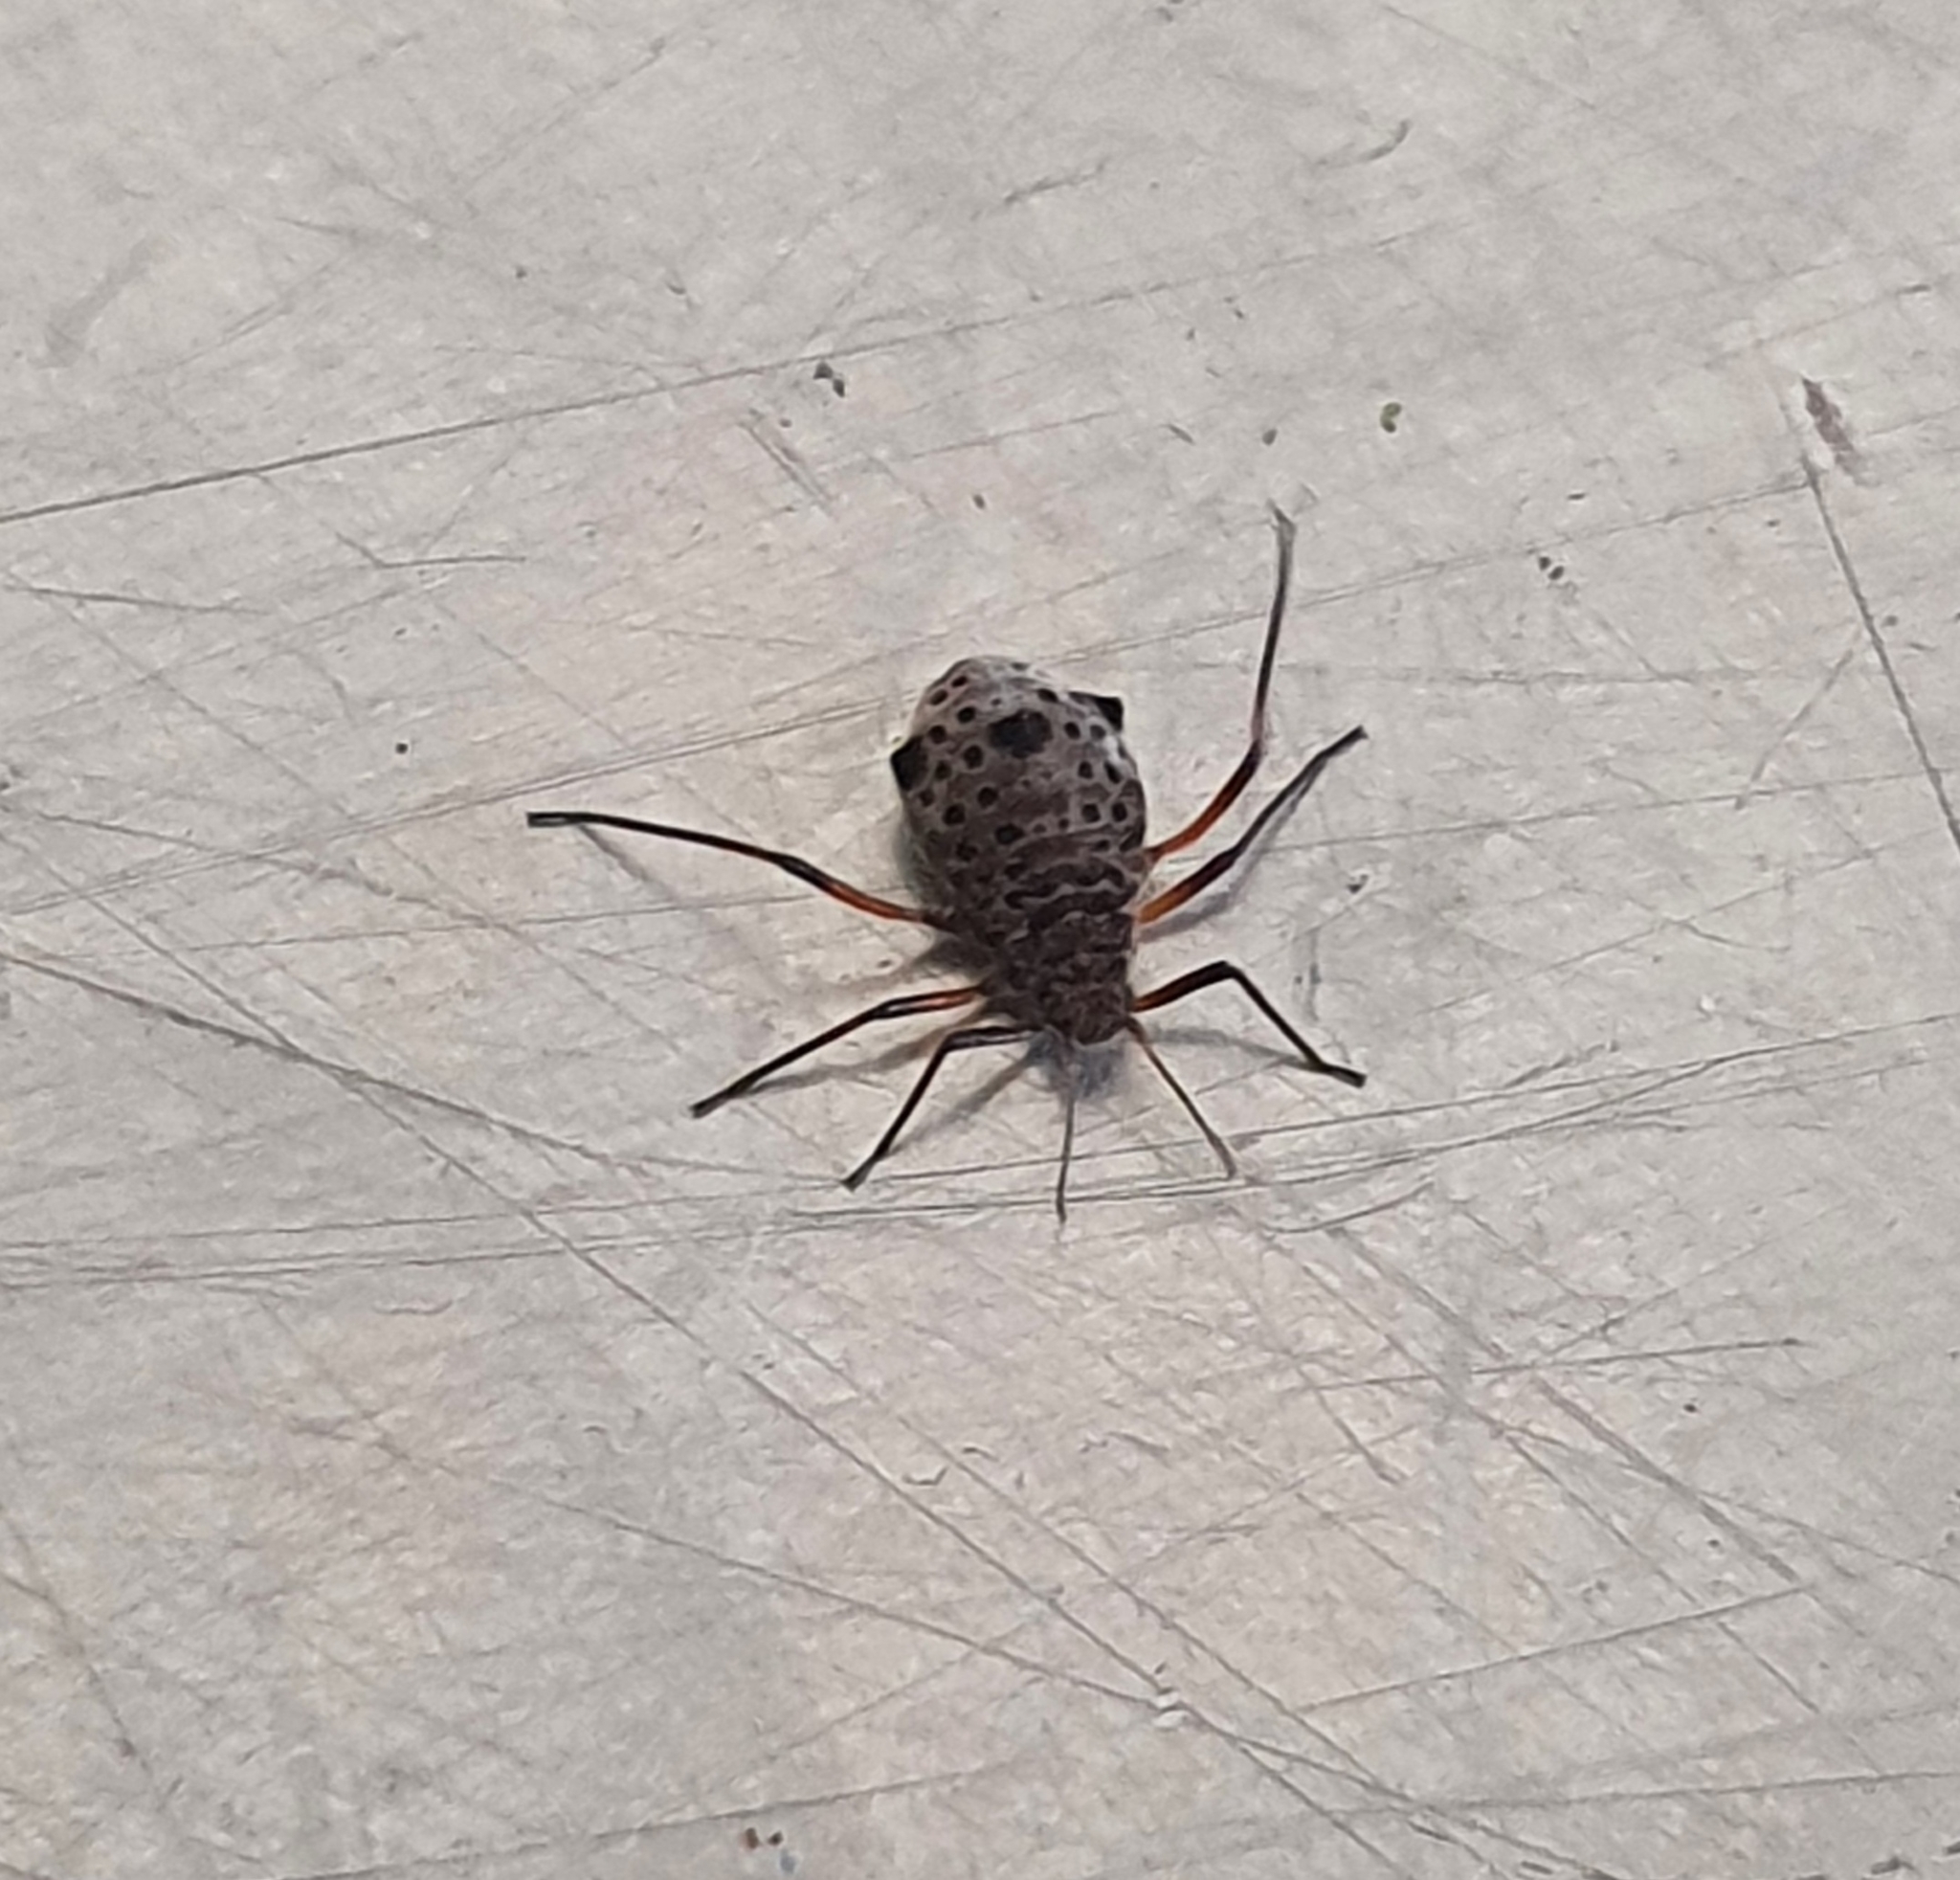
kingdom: Animalia
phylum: Arthropoda
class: Insecta
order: Hemiptera
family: Aphididae
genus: Tuberolachnus
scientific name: Tuberolachnus salignus
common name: Giant willow aphid
